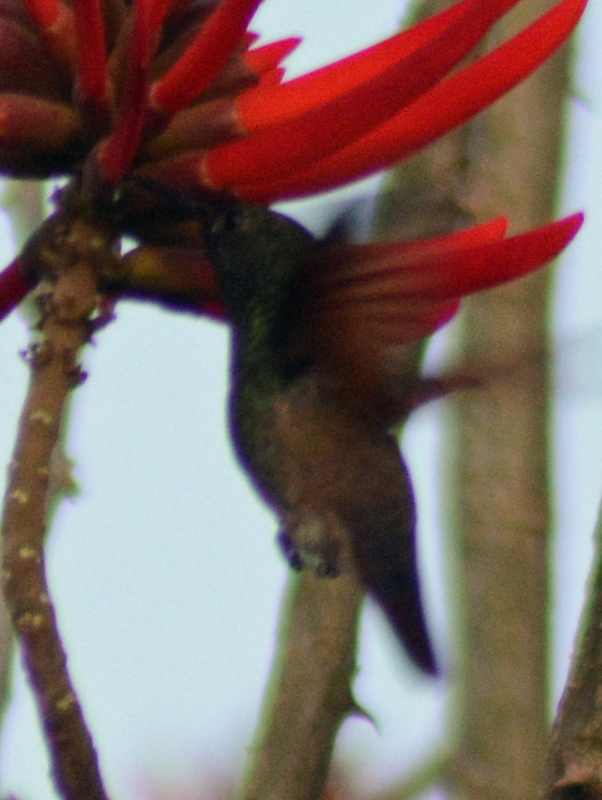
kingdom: Animalia
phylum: Chordata
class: Aves
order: Apodiformes
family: Trochilidae
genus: Saucerottia
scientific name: Saucerottia beryllina
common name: Berylline hummingbird
